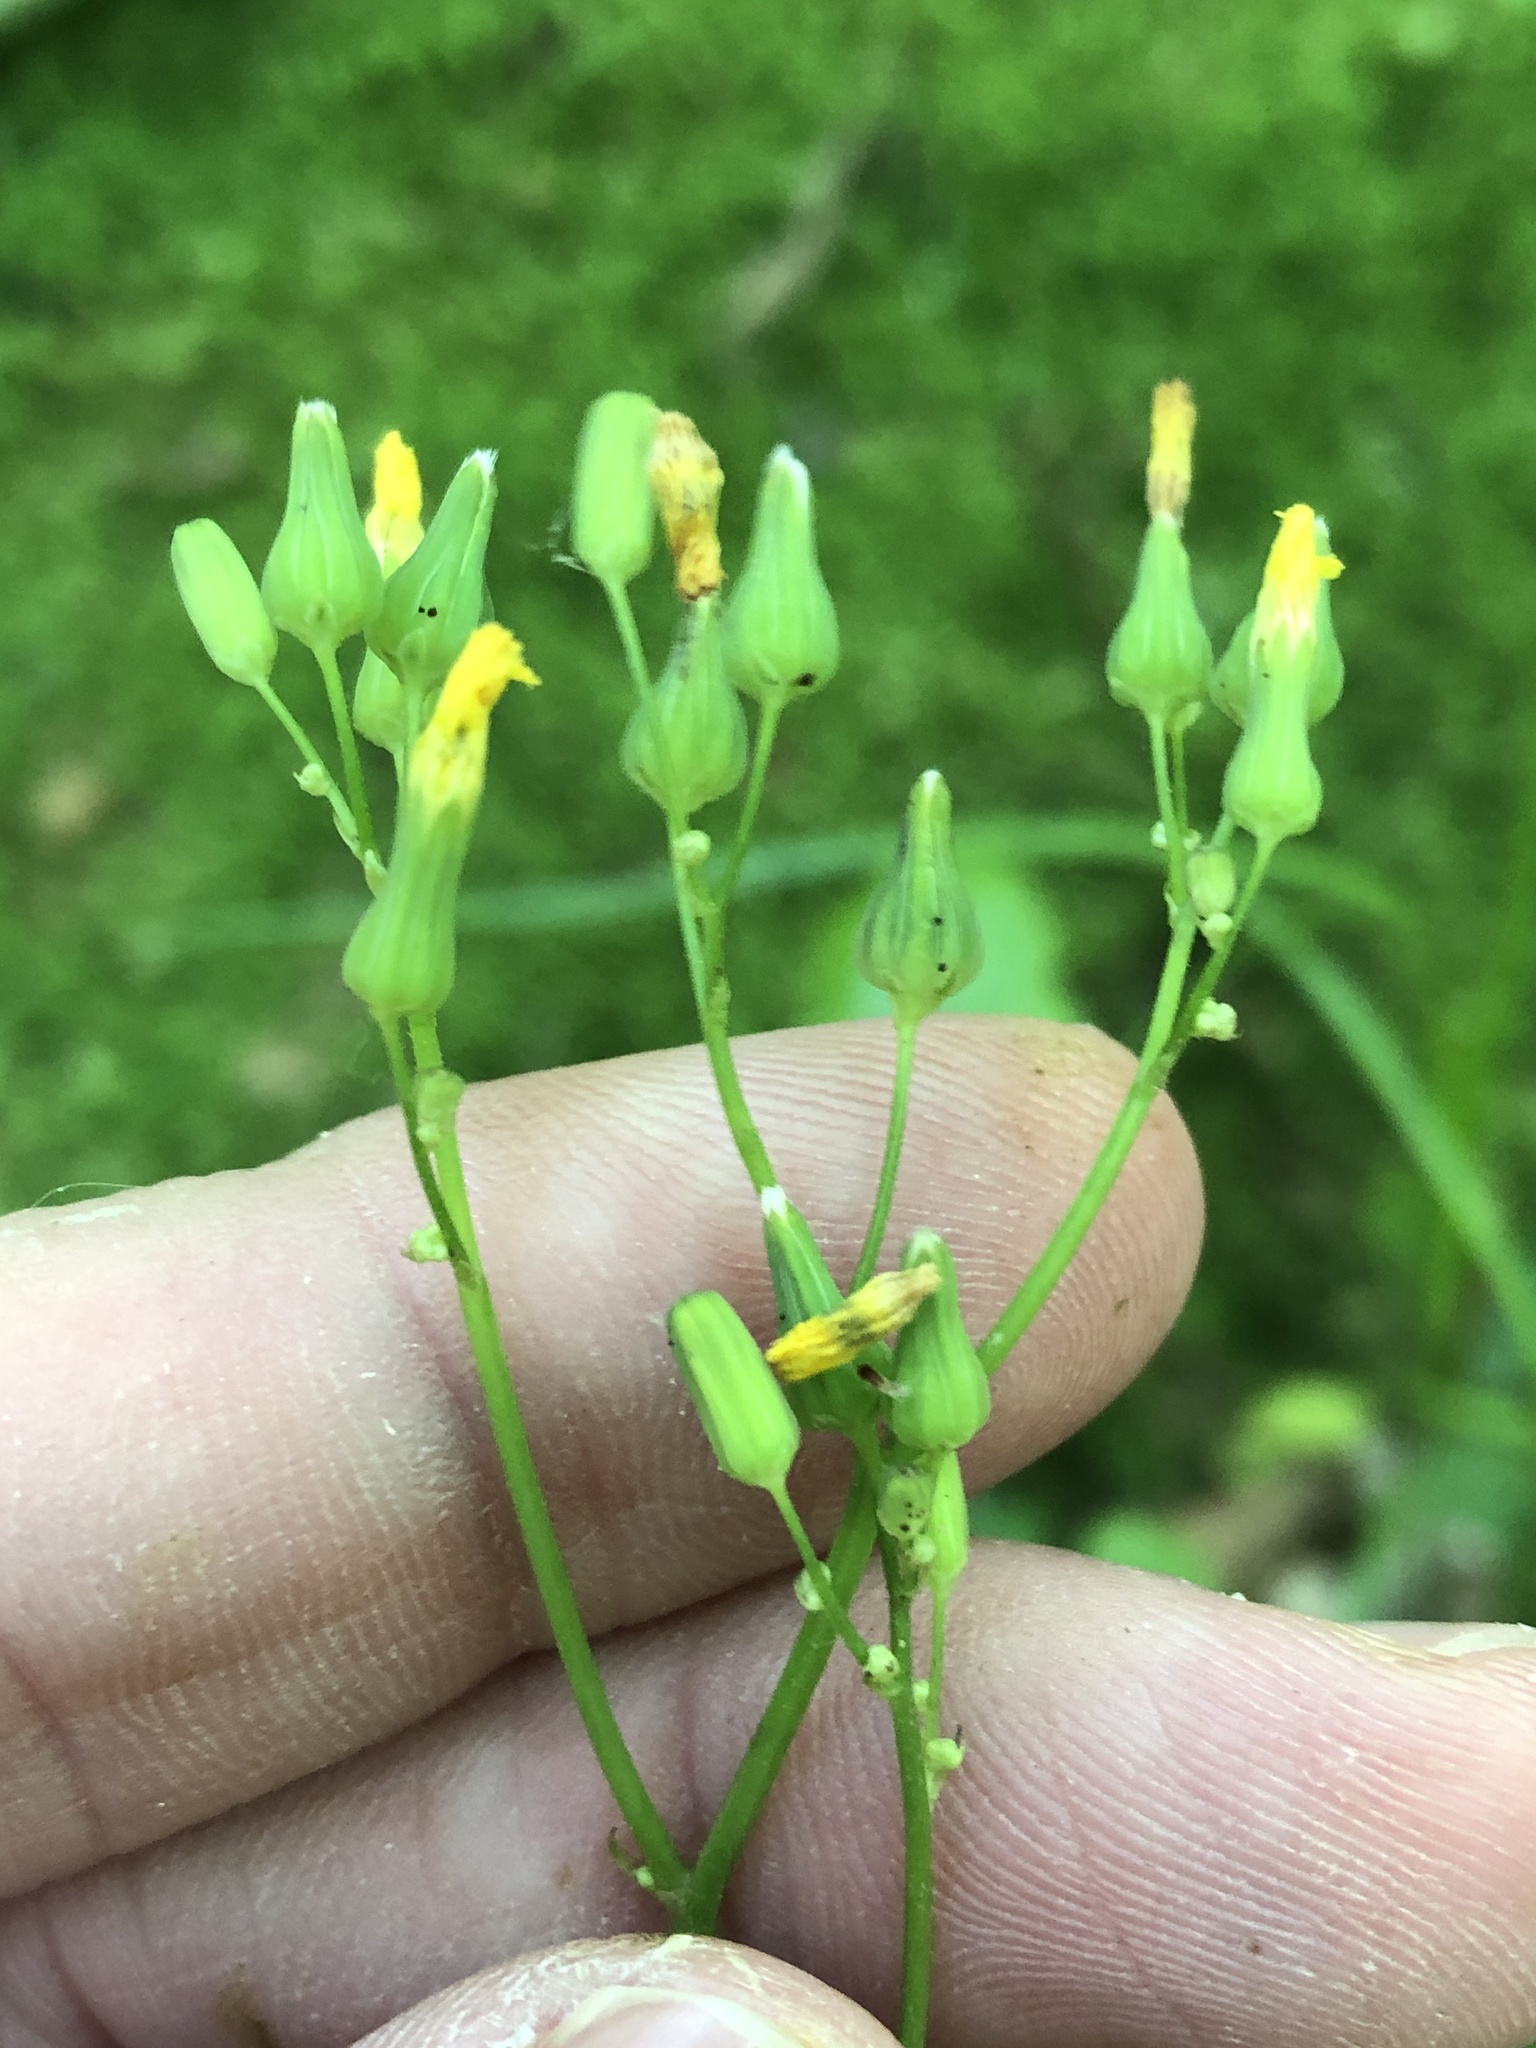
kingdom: Plantae
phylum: Tracheophyta
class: Magnoliopsida
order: Asterales
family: Asteraceae
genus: Youngia
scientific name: Youngia japonica
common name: Oriental false hawksbeard
